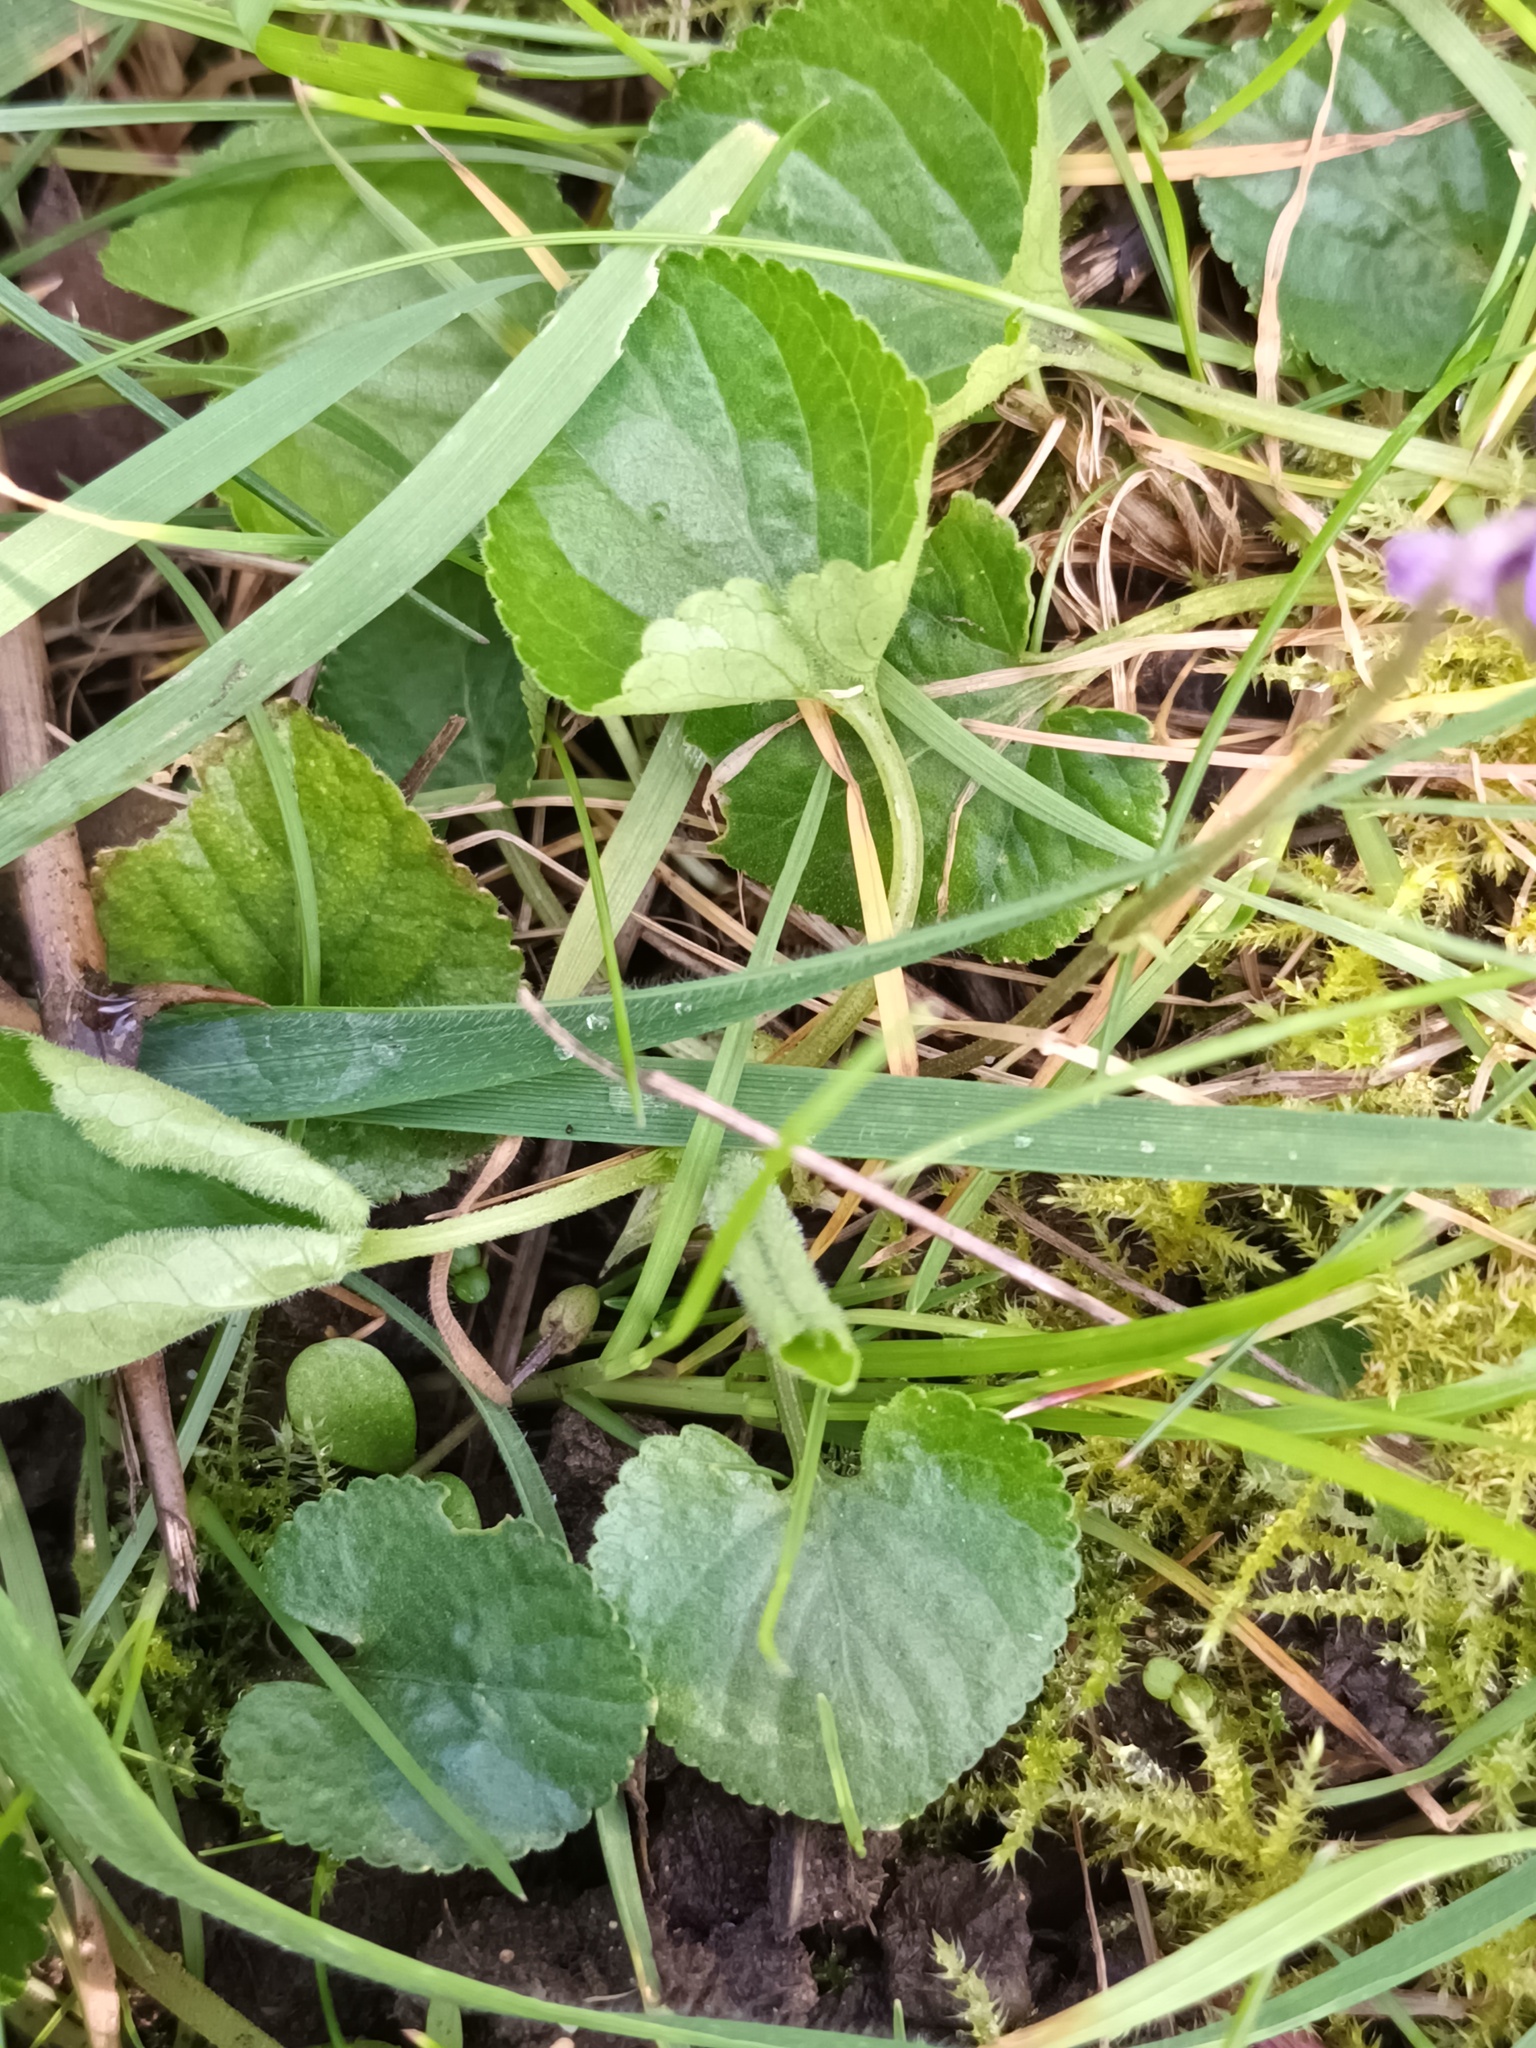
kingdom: Plantae
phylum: Tracheophyta
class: Magnoliopsida
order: Malpighiales
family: Violaceae
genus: Viola
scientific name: Viola odorata
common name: Sweet violet
